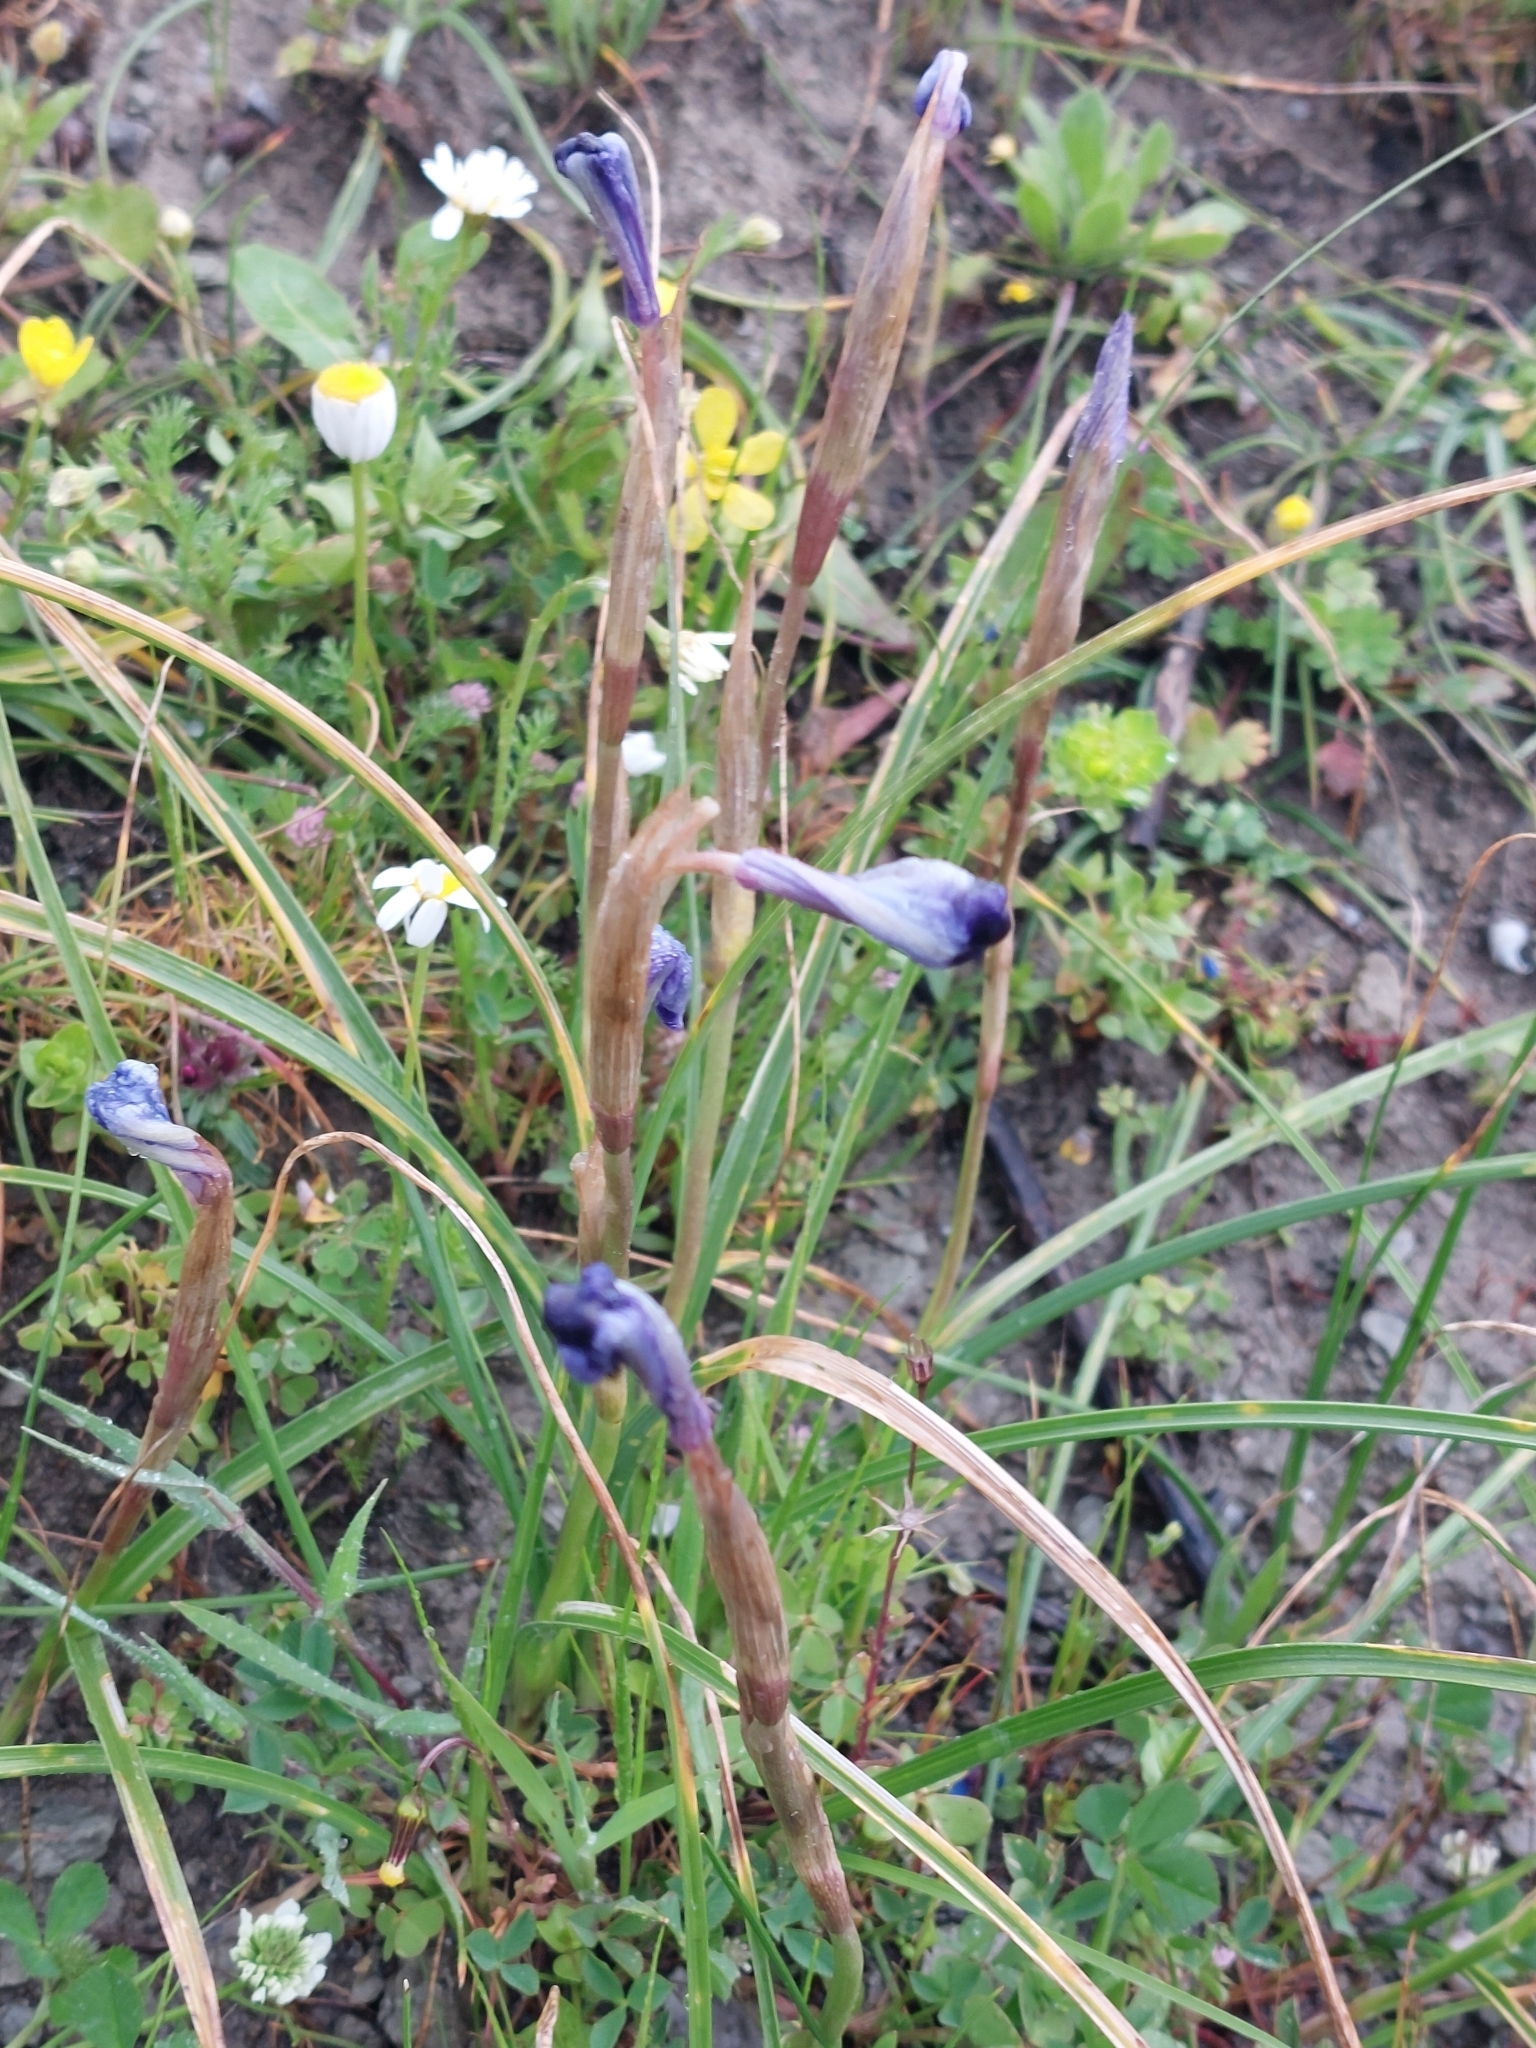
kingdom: Plantae
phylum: Tracheophyta
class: Liliopsida
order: Asparagales
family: Iridaceae
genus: Moraea
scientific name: Moraea sisyrinchium
